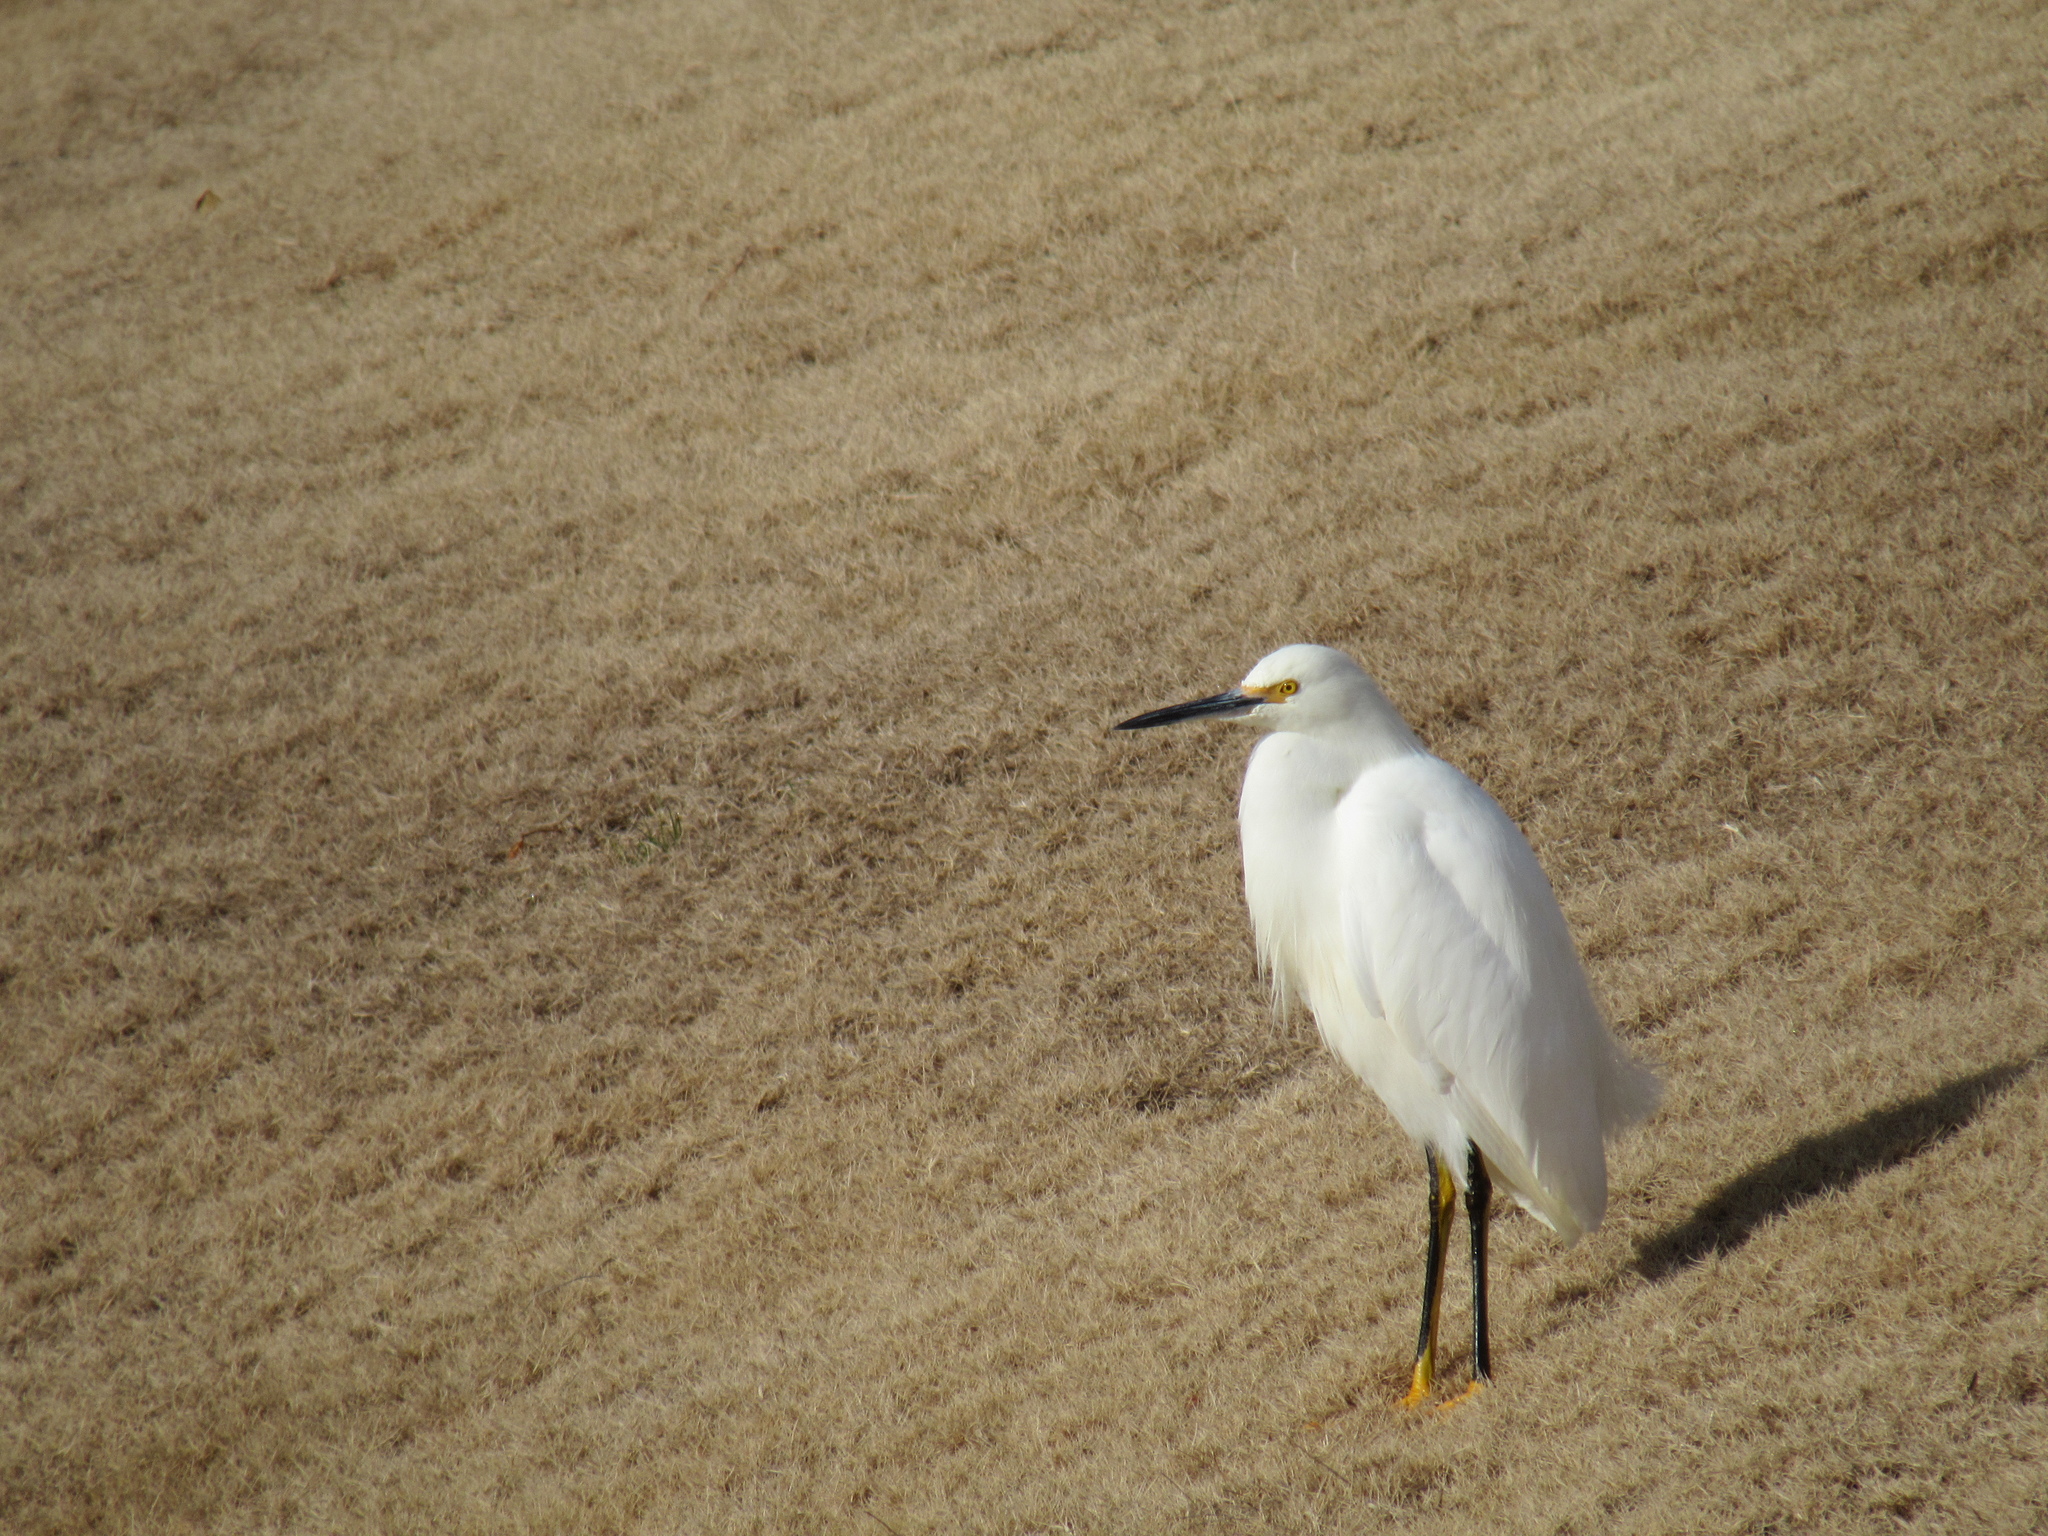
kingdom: Animalia
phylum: Chordata
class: Aves
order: Pelecaniformes
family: Ardeidae
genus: Egretta
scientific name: Egretta thula
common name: Snowy egret
